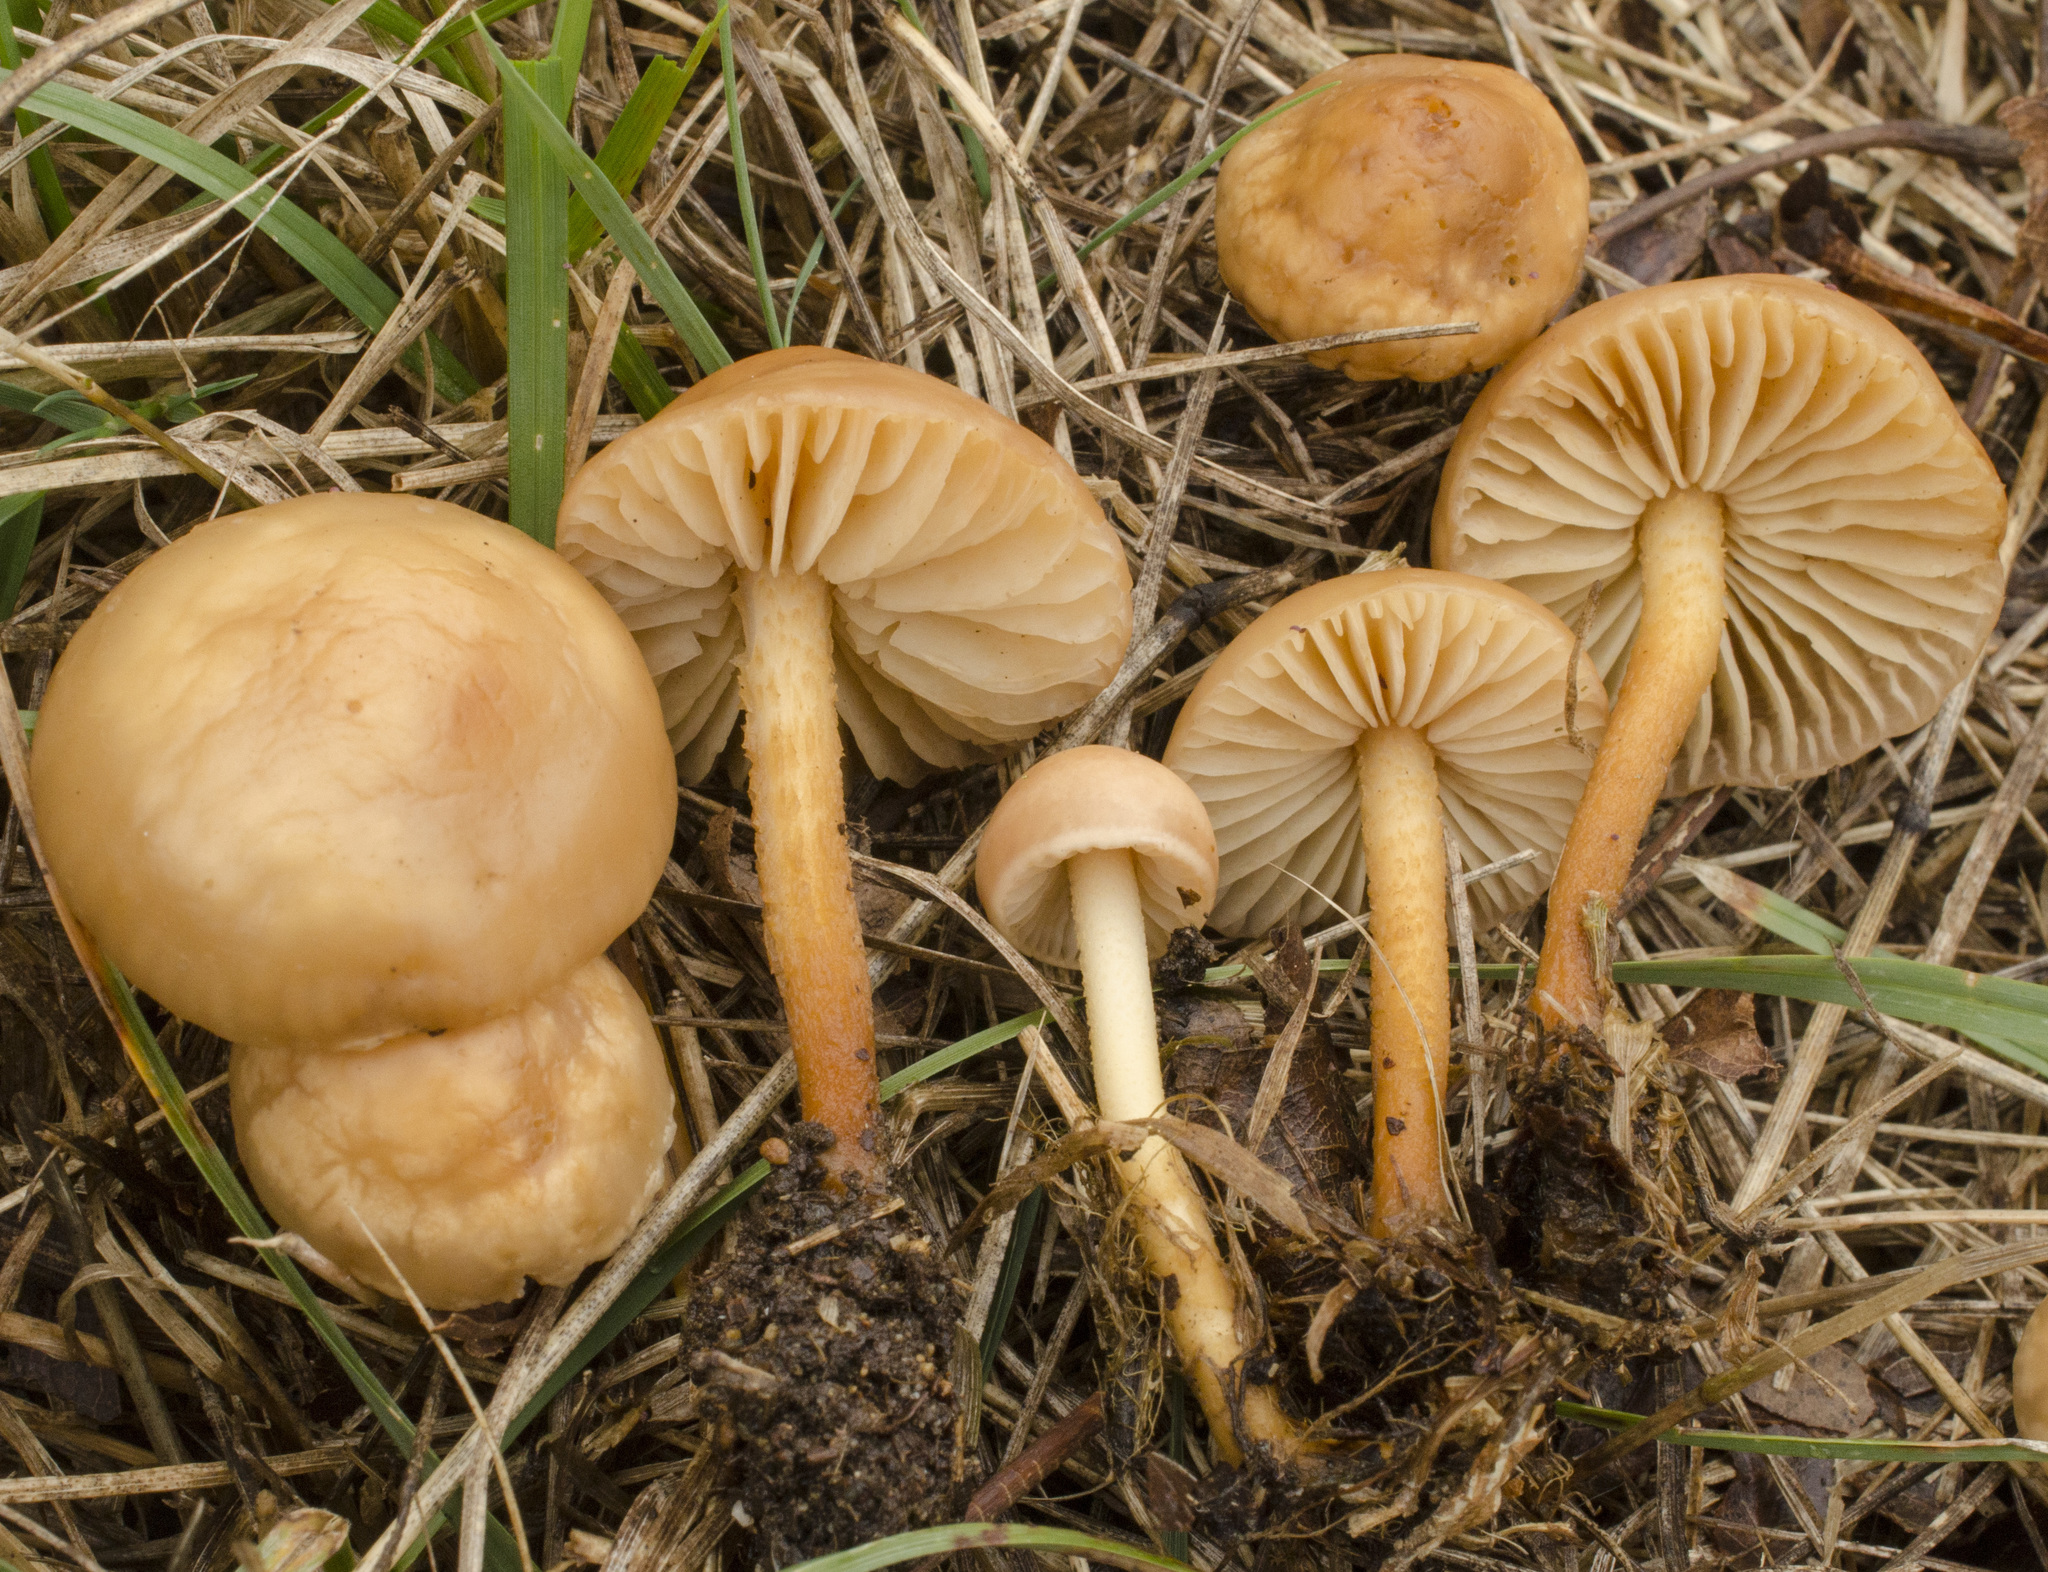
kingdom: Fungi
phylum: Basidiomycota
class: Agaricomycetes
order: Agaricales
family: Marasmiaceae
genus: Marasmius
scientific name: Marasmius oreades
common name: Fairy ring champignon
